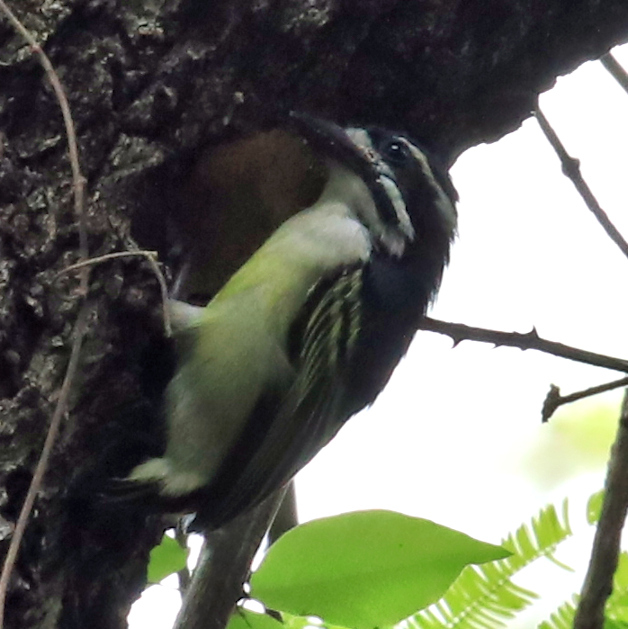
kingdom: Animalia
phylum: Chordata
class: Aves
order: Piciformes
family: Lybiidae
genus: Pogoniulus
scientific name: Pogoniulus bilineatus
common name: Yellow-rumped tinkerbird
